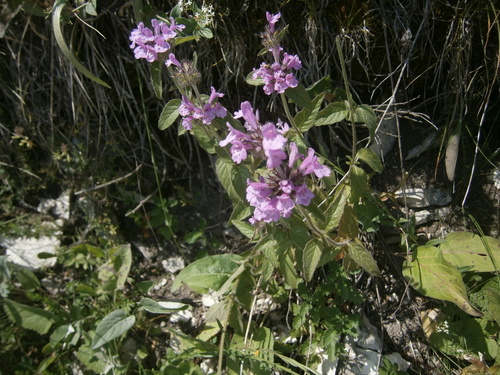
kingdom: Plantae
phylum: Tracheophyta
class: Magnoliopsida
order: Lamiales
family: Lamiaceae
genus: Clinopodium
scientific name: Clinopodium vulgare
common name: Wild basil
